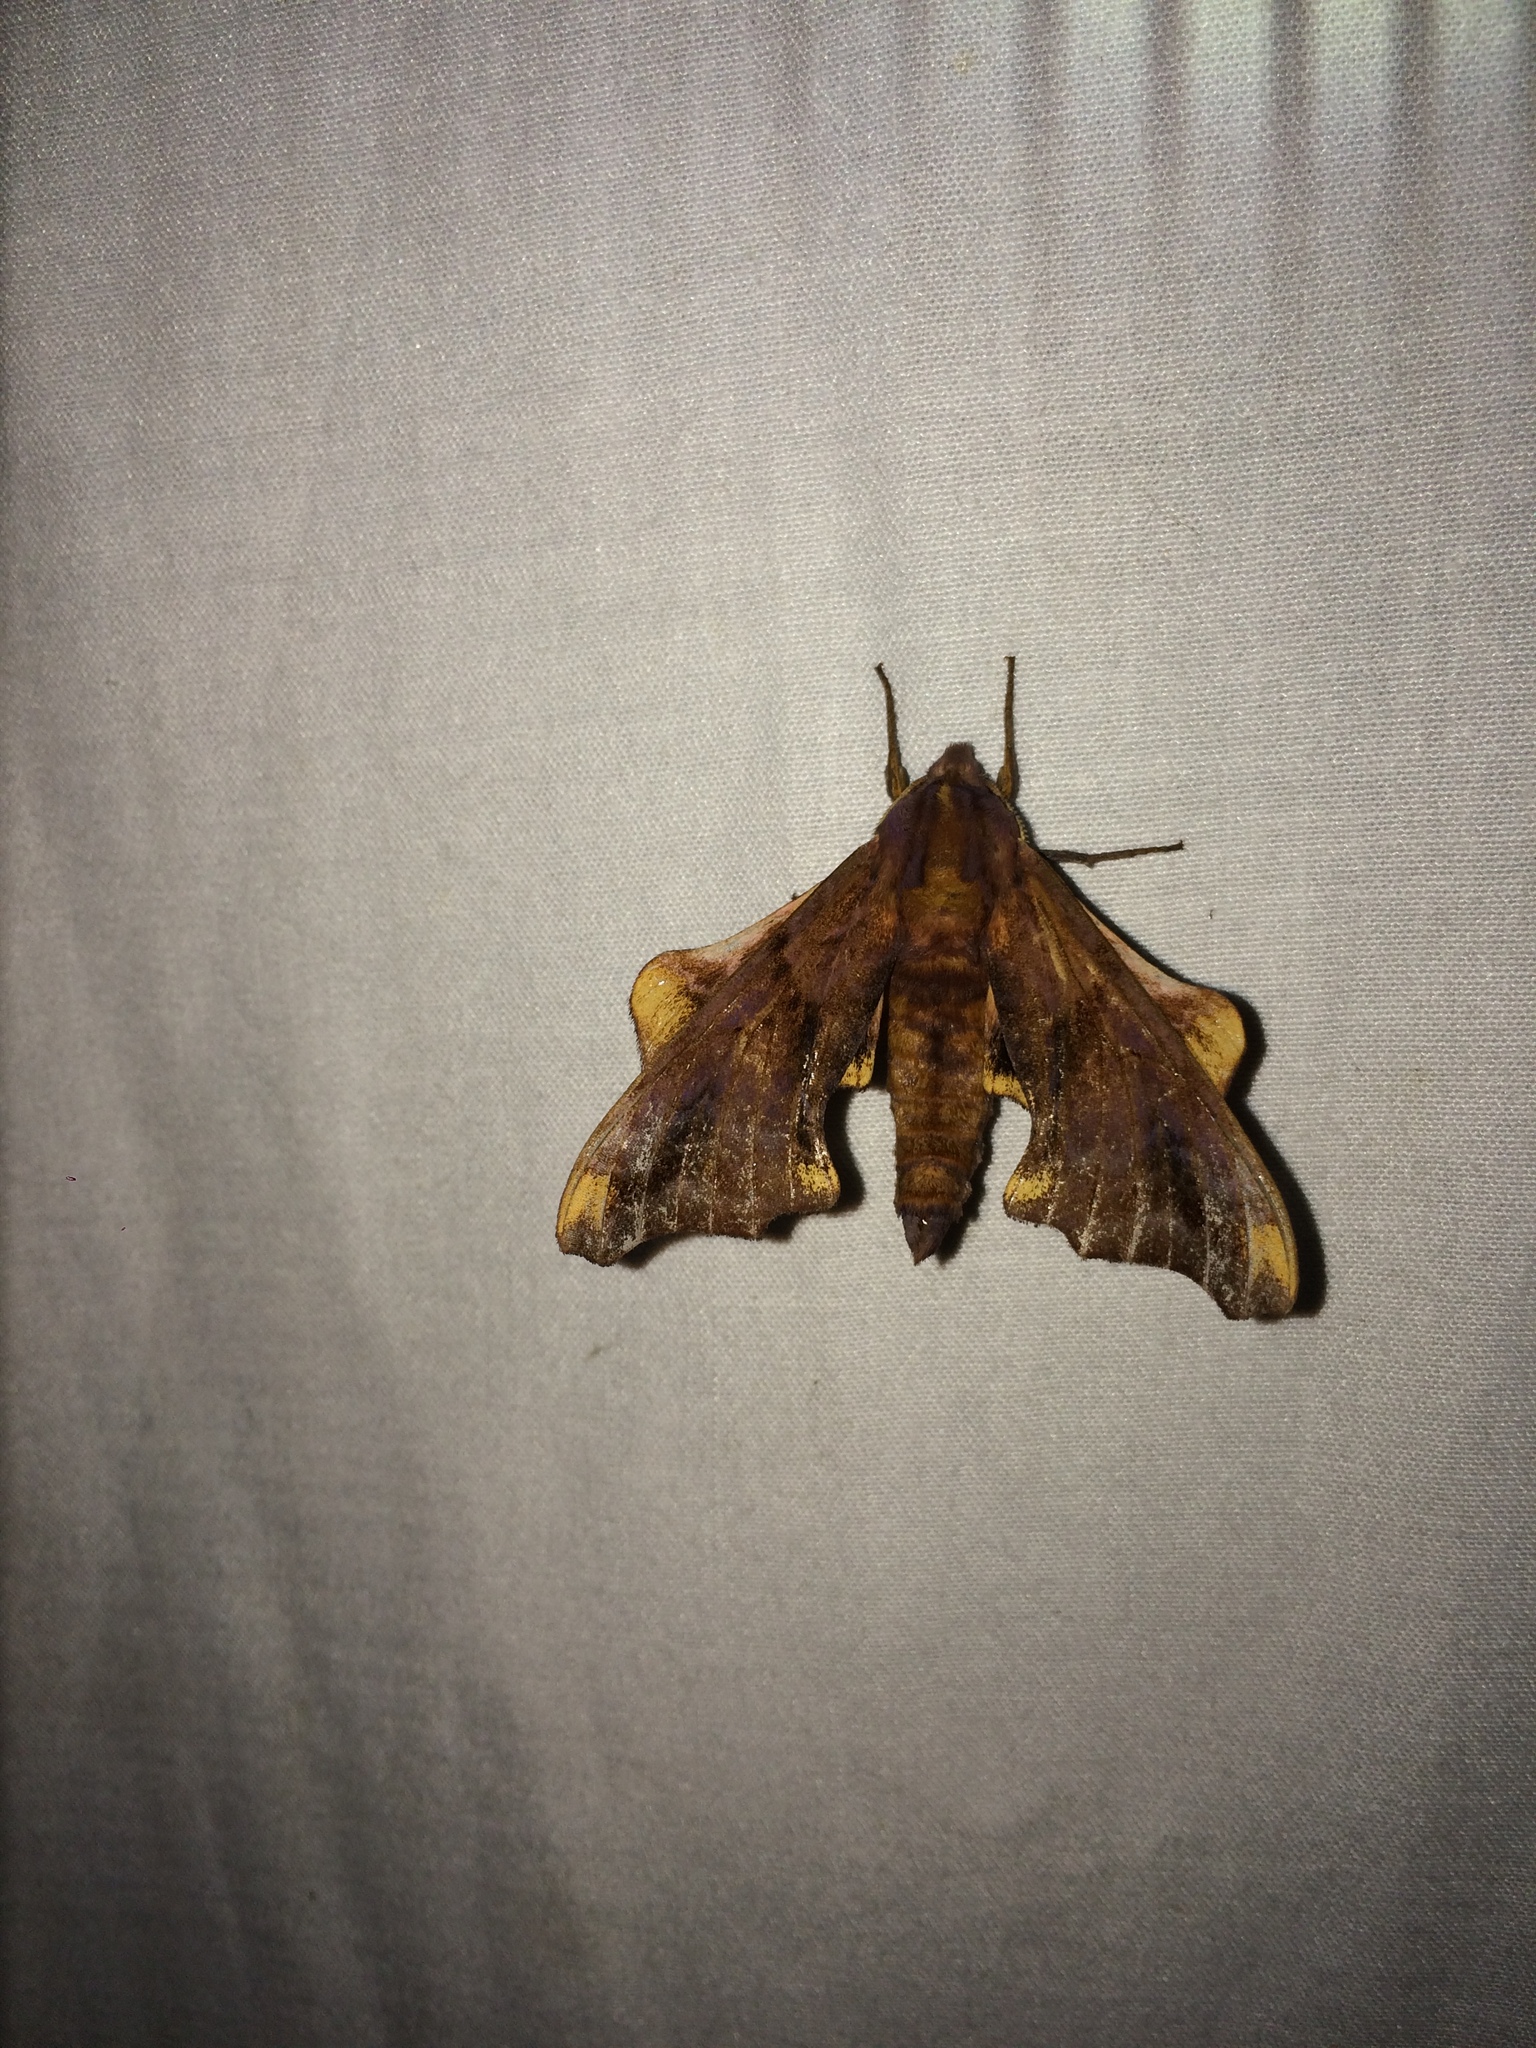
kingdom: Animalia
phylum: Arthropoda
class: Insecta
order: Lepidoptera
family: Sphingidae
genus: Paonias
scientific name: Paonias myops
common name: Small-eyed sphinx
